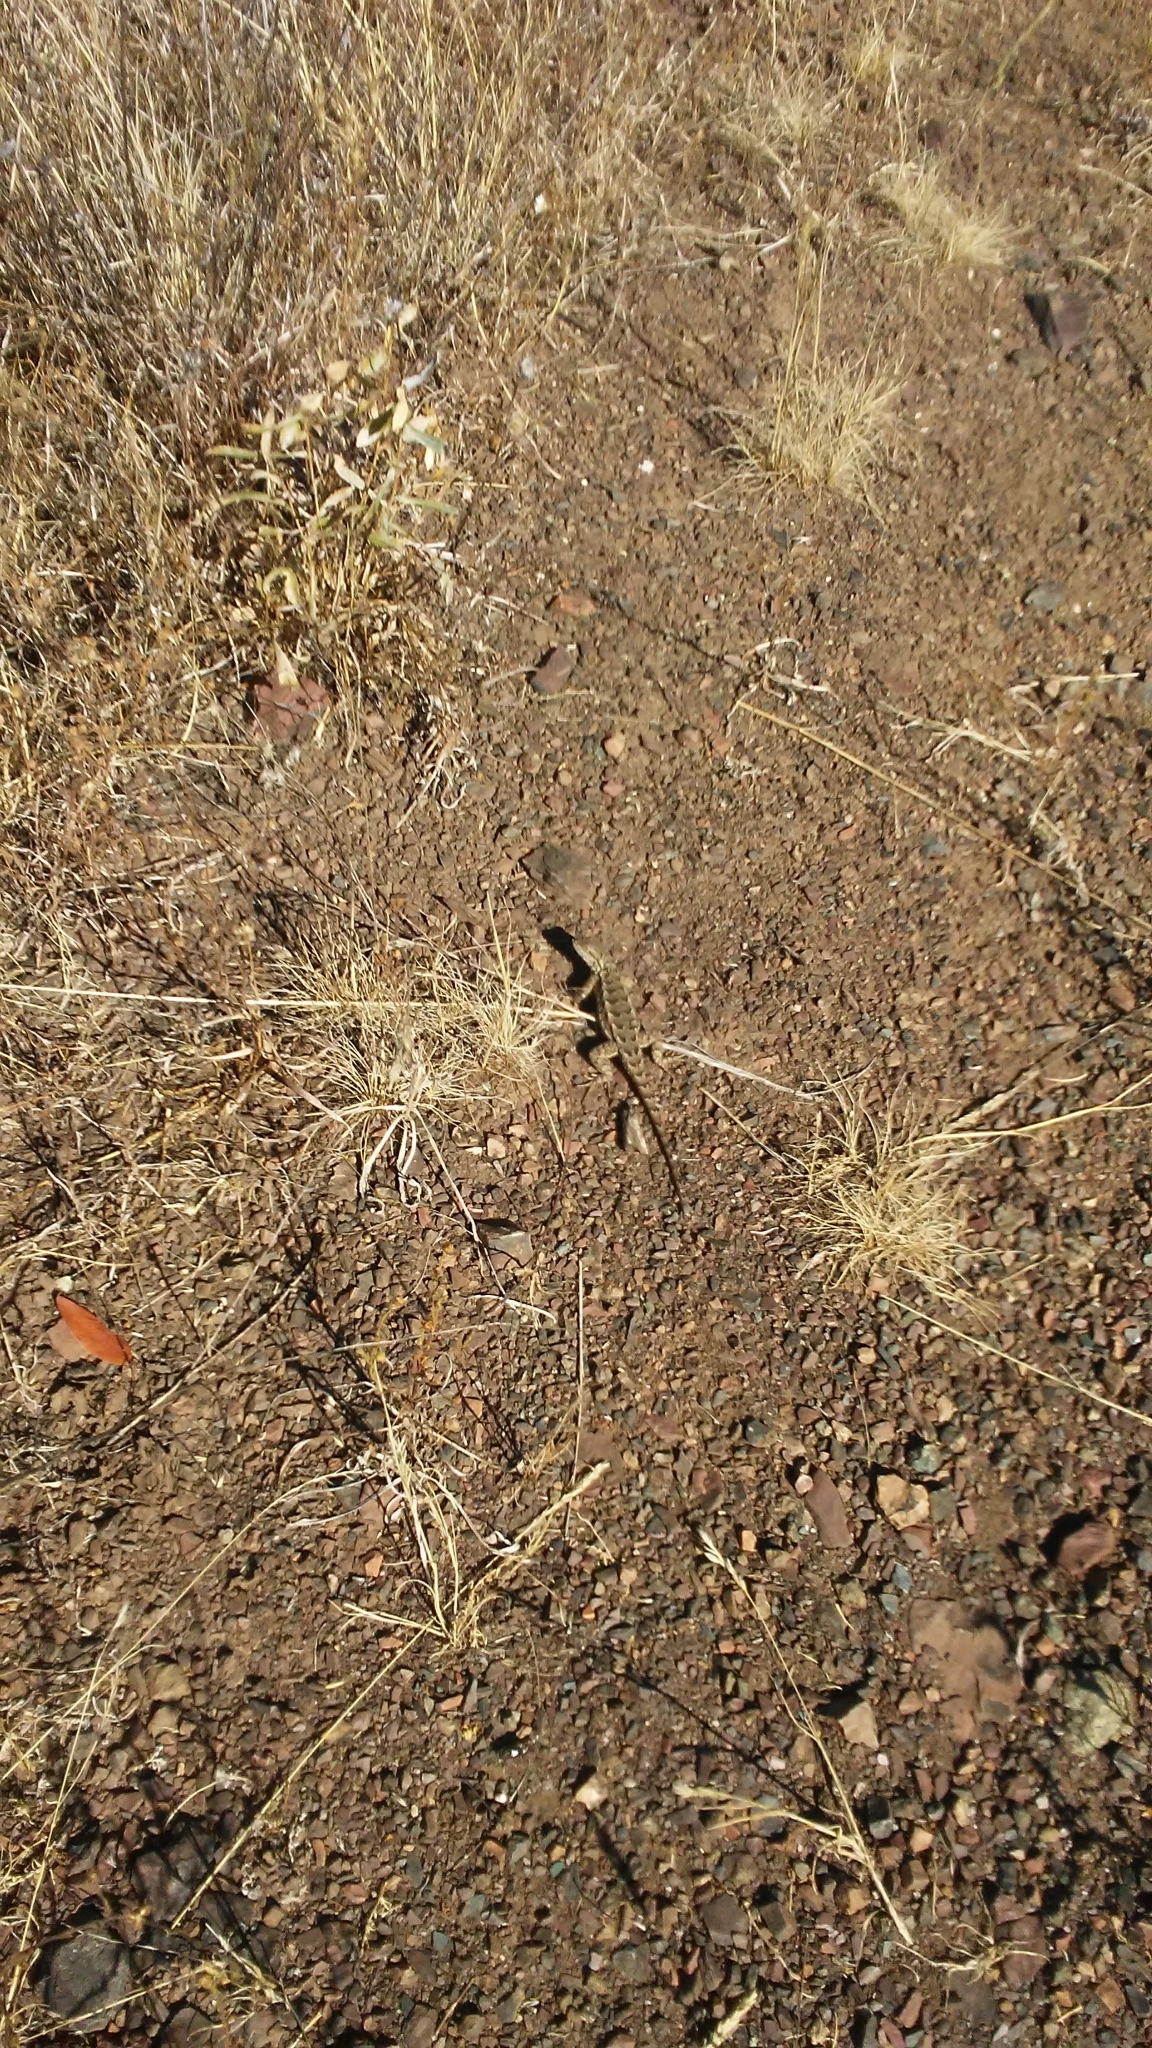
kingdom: Animalia
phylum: Chordata
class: Squamata
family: Phrynosomatidae
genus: Sceloporus
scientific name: Sceloporus occidentalis
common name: Western fence lizard
